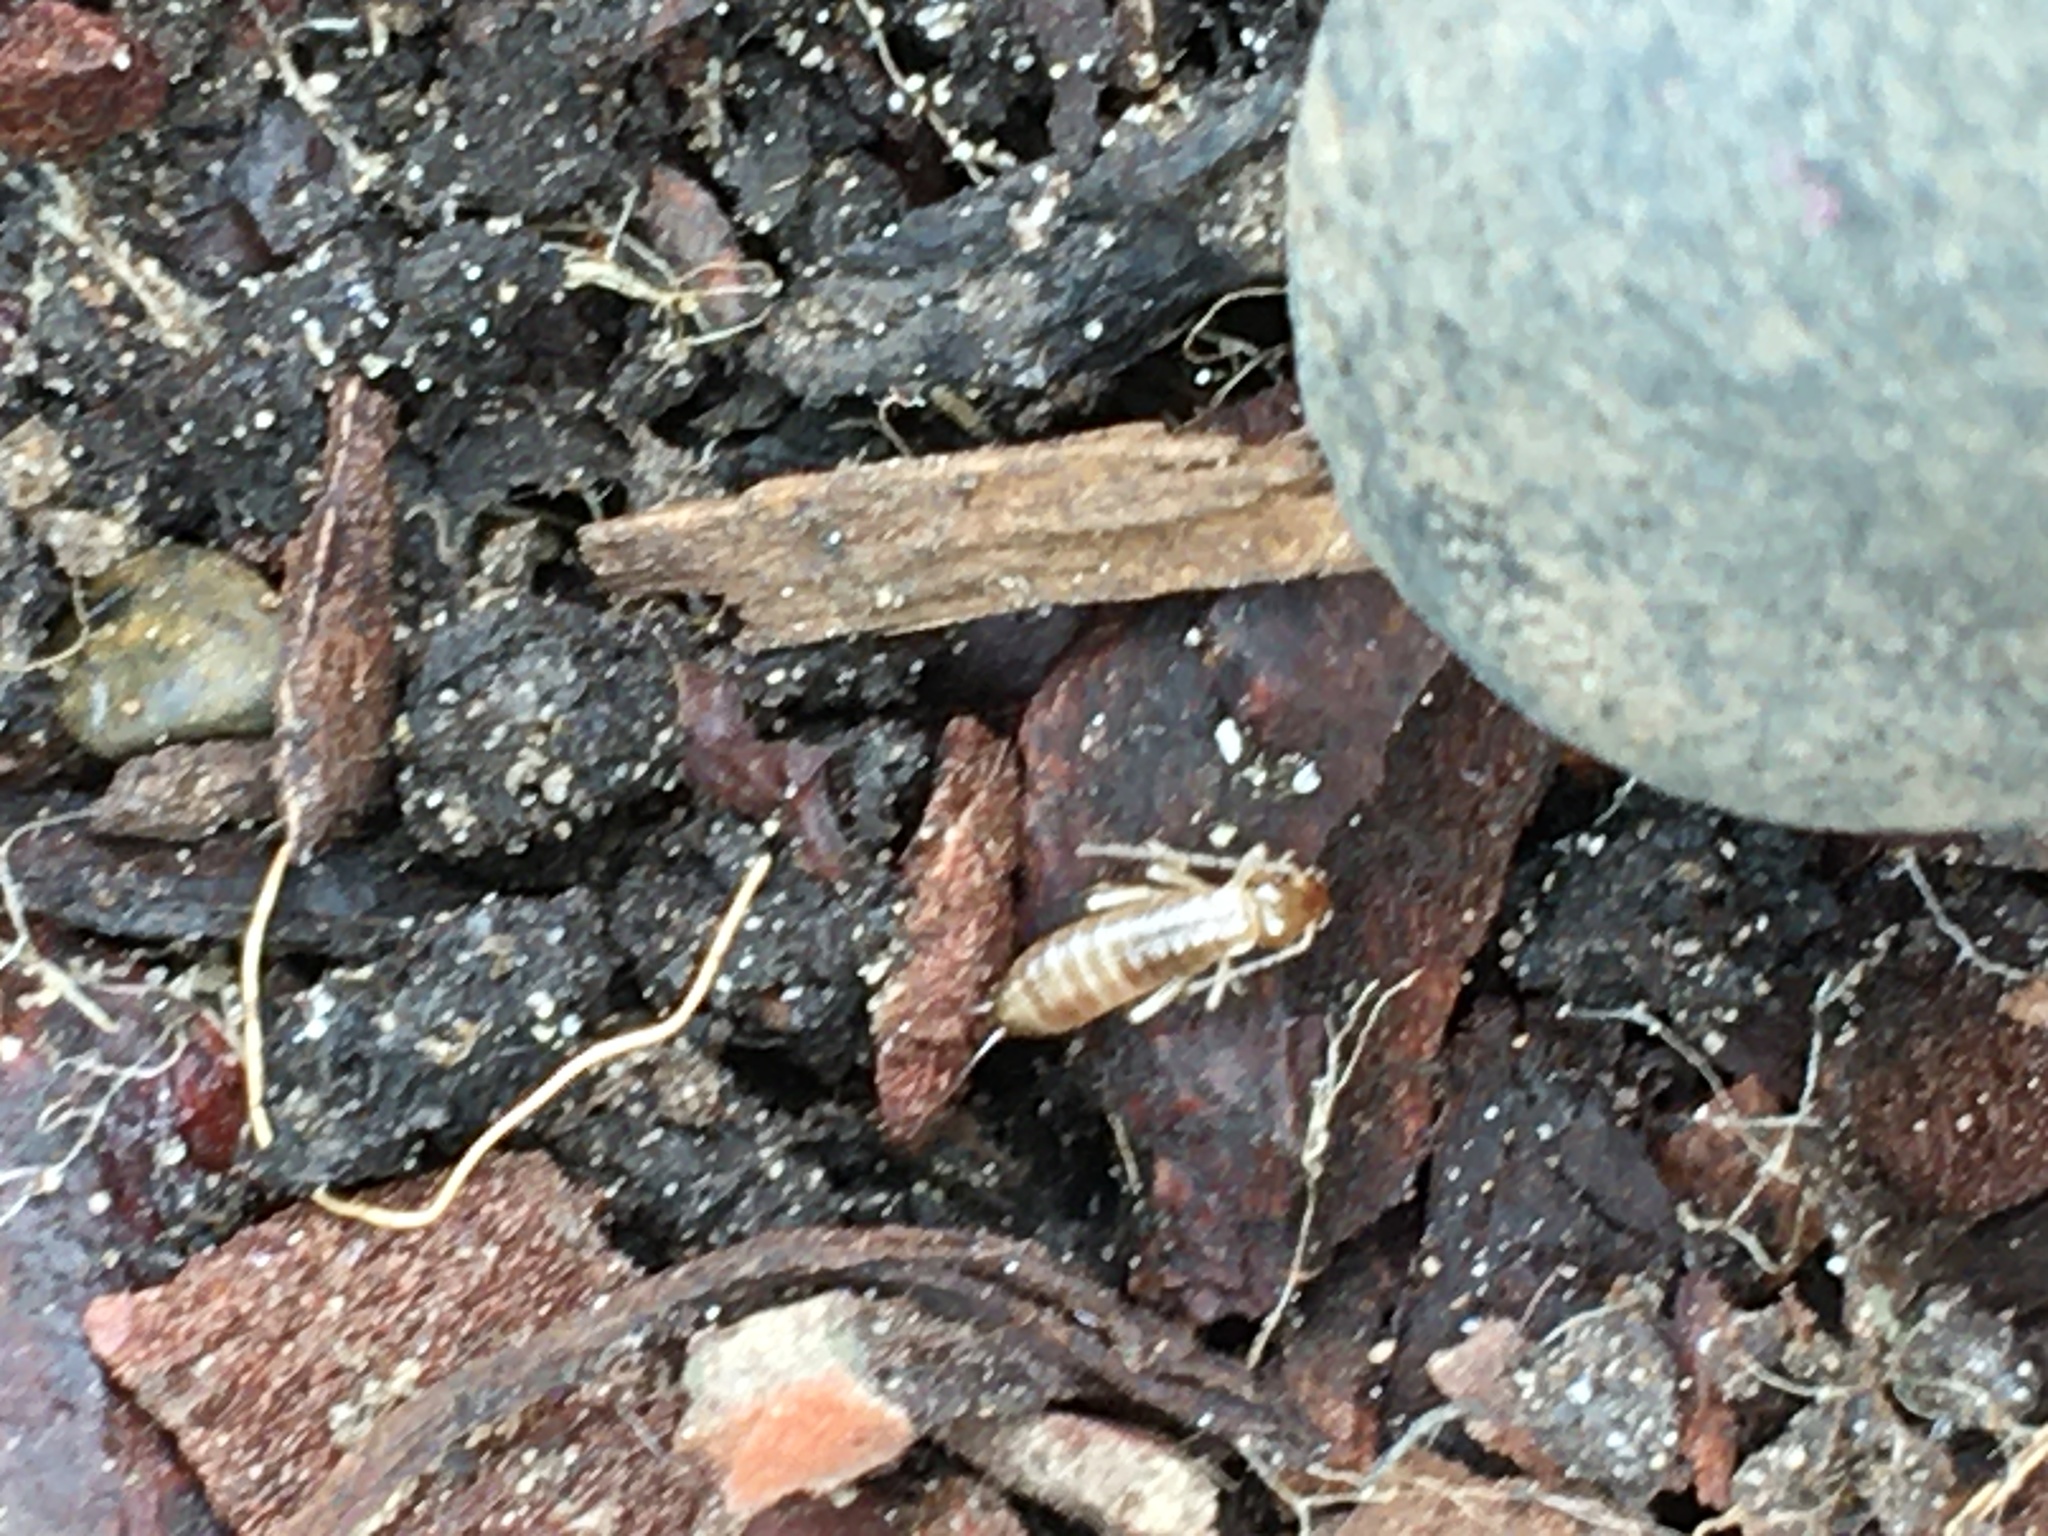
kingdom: Animalia
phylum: Arthropoda
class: Insecta
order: Dermaptera
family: Forficulidae
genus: Forficula
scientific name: Forficula
